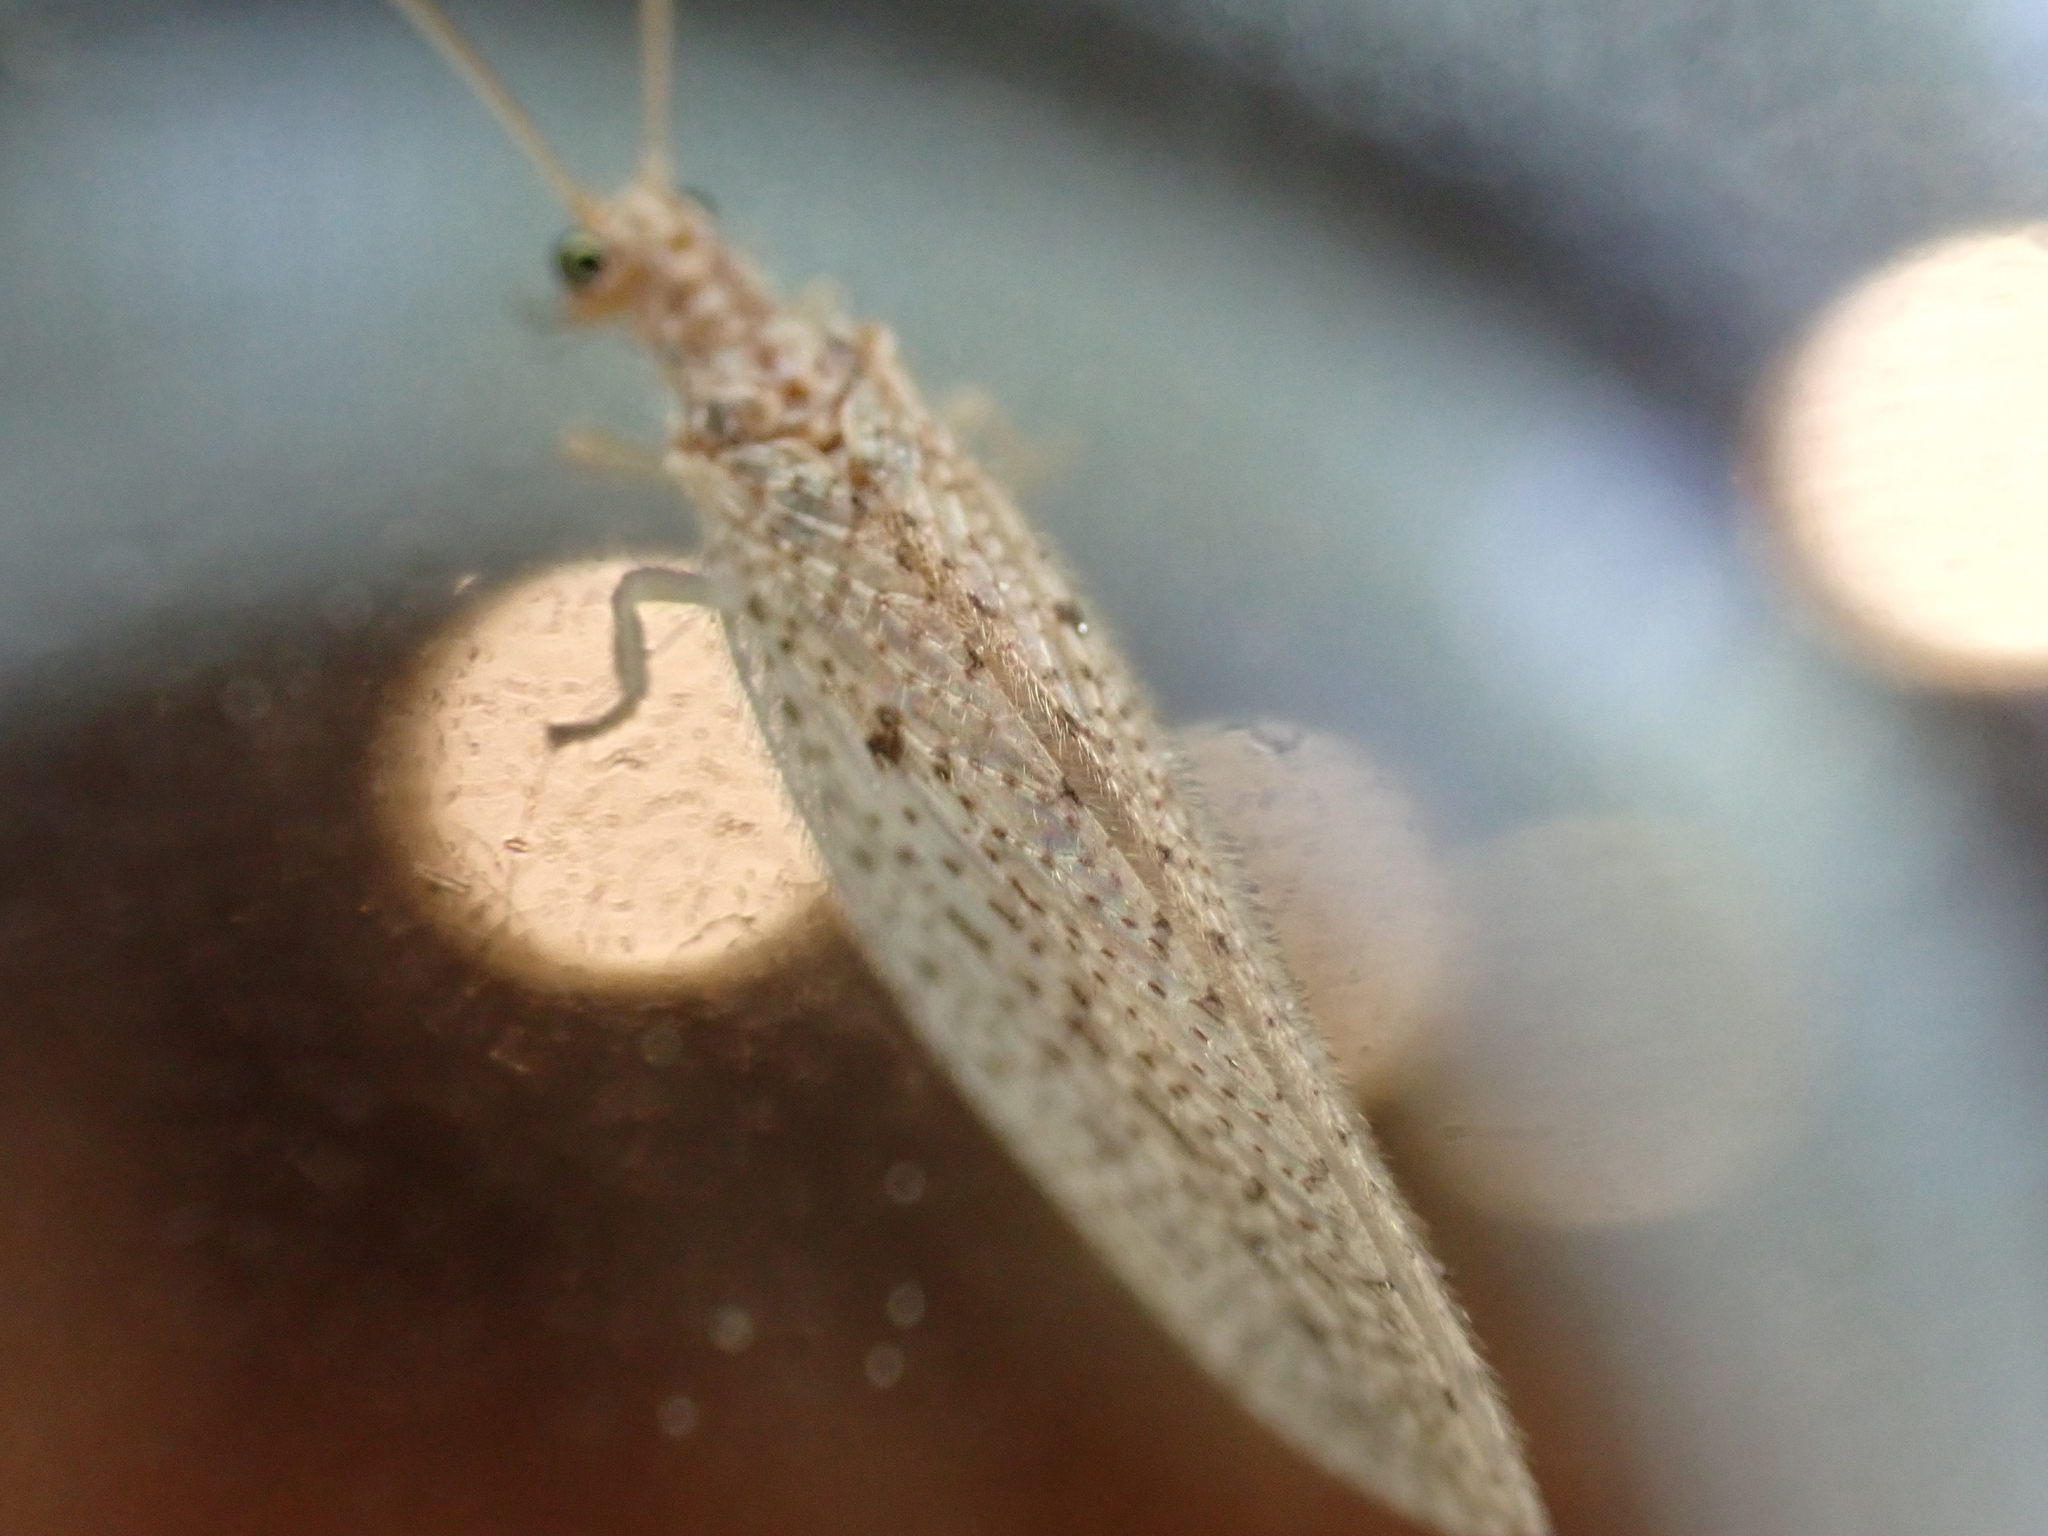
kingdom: Animalia
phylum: Arthropoda
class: Insecta
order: Neuroptera
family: Hemerobiidae
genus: Micromus
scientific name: Micromus subanticus
